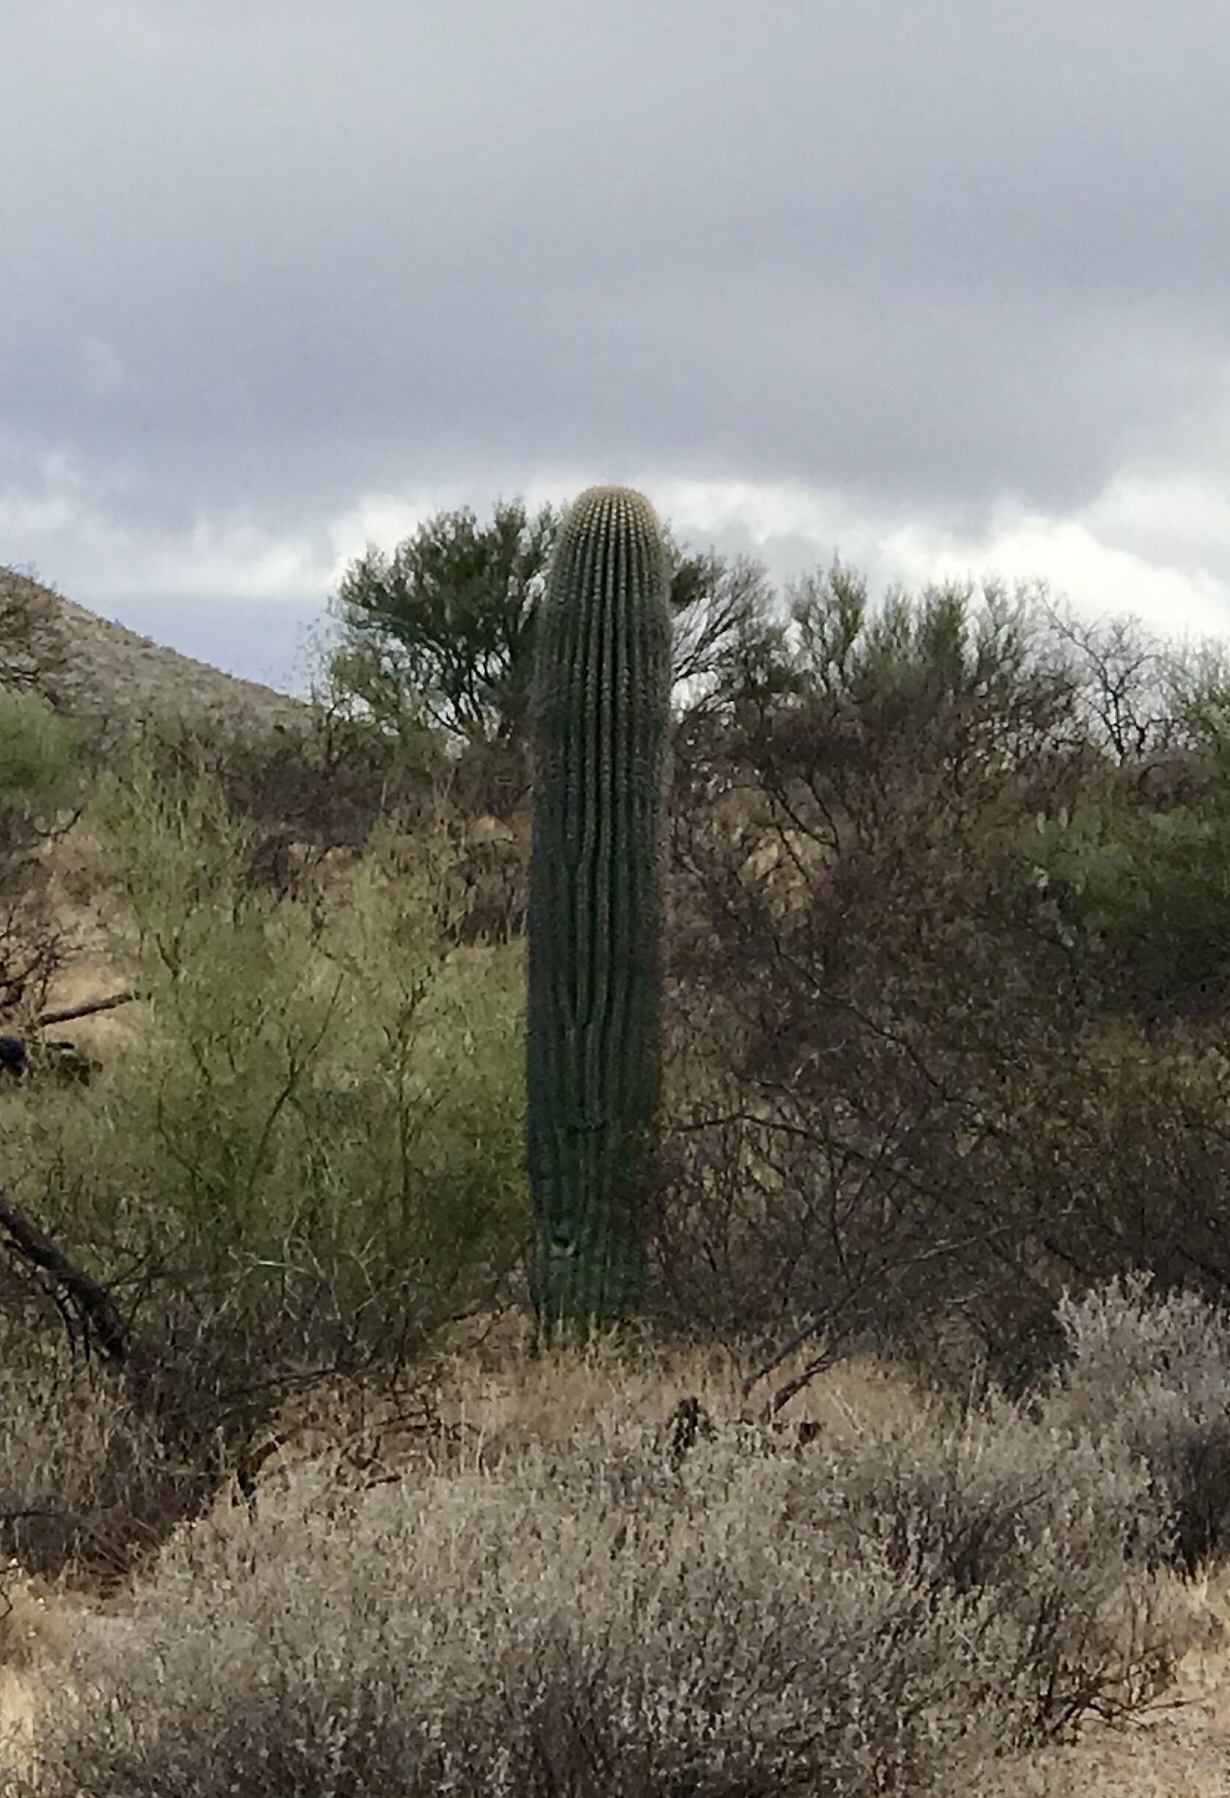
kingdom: Plantae
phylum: Tracheophyta
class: Magnoliopsida
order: Caryophyllales
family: Cactaceae
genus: Carnegiea
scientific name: Carnegiea gigantea
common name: Saguaro
